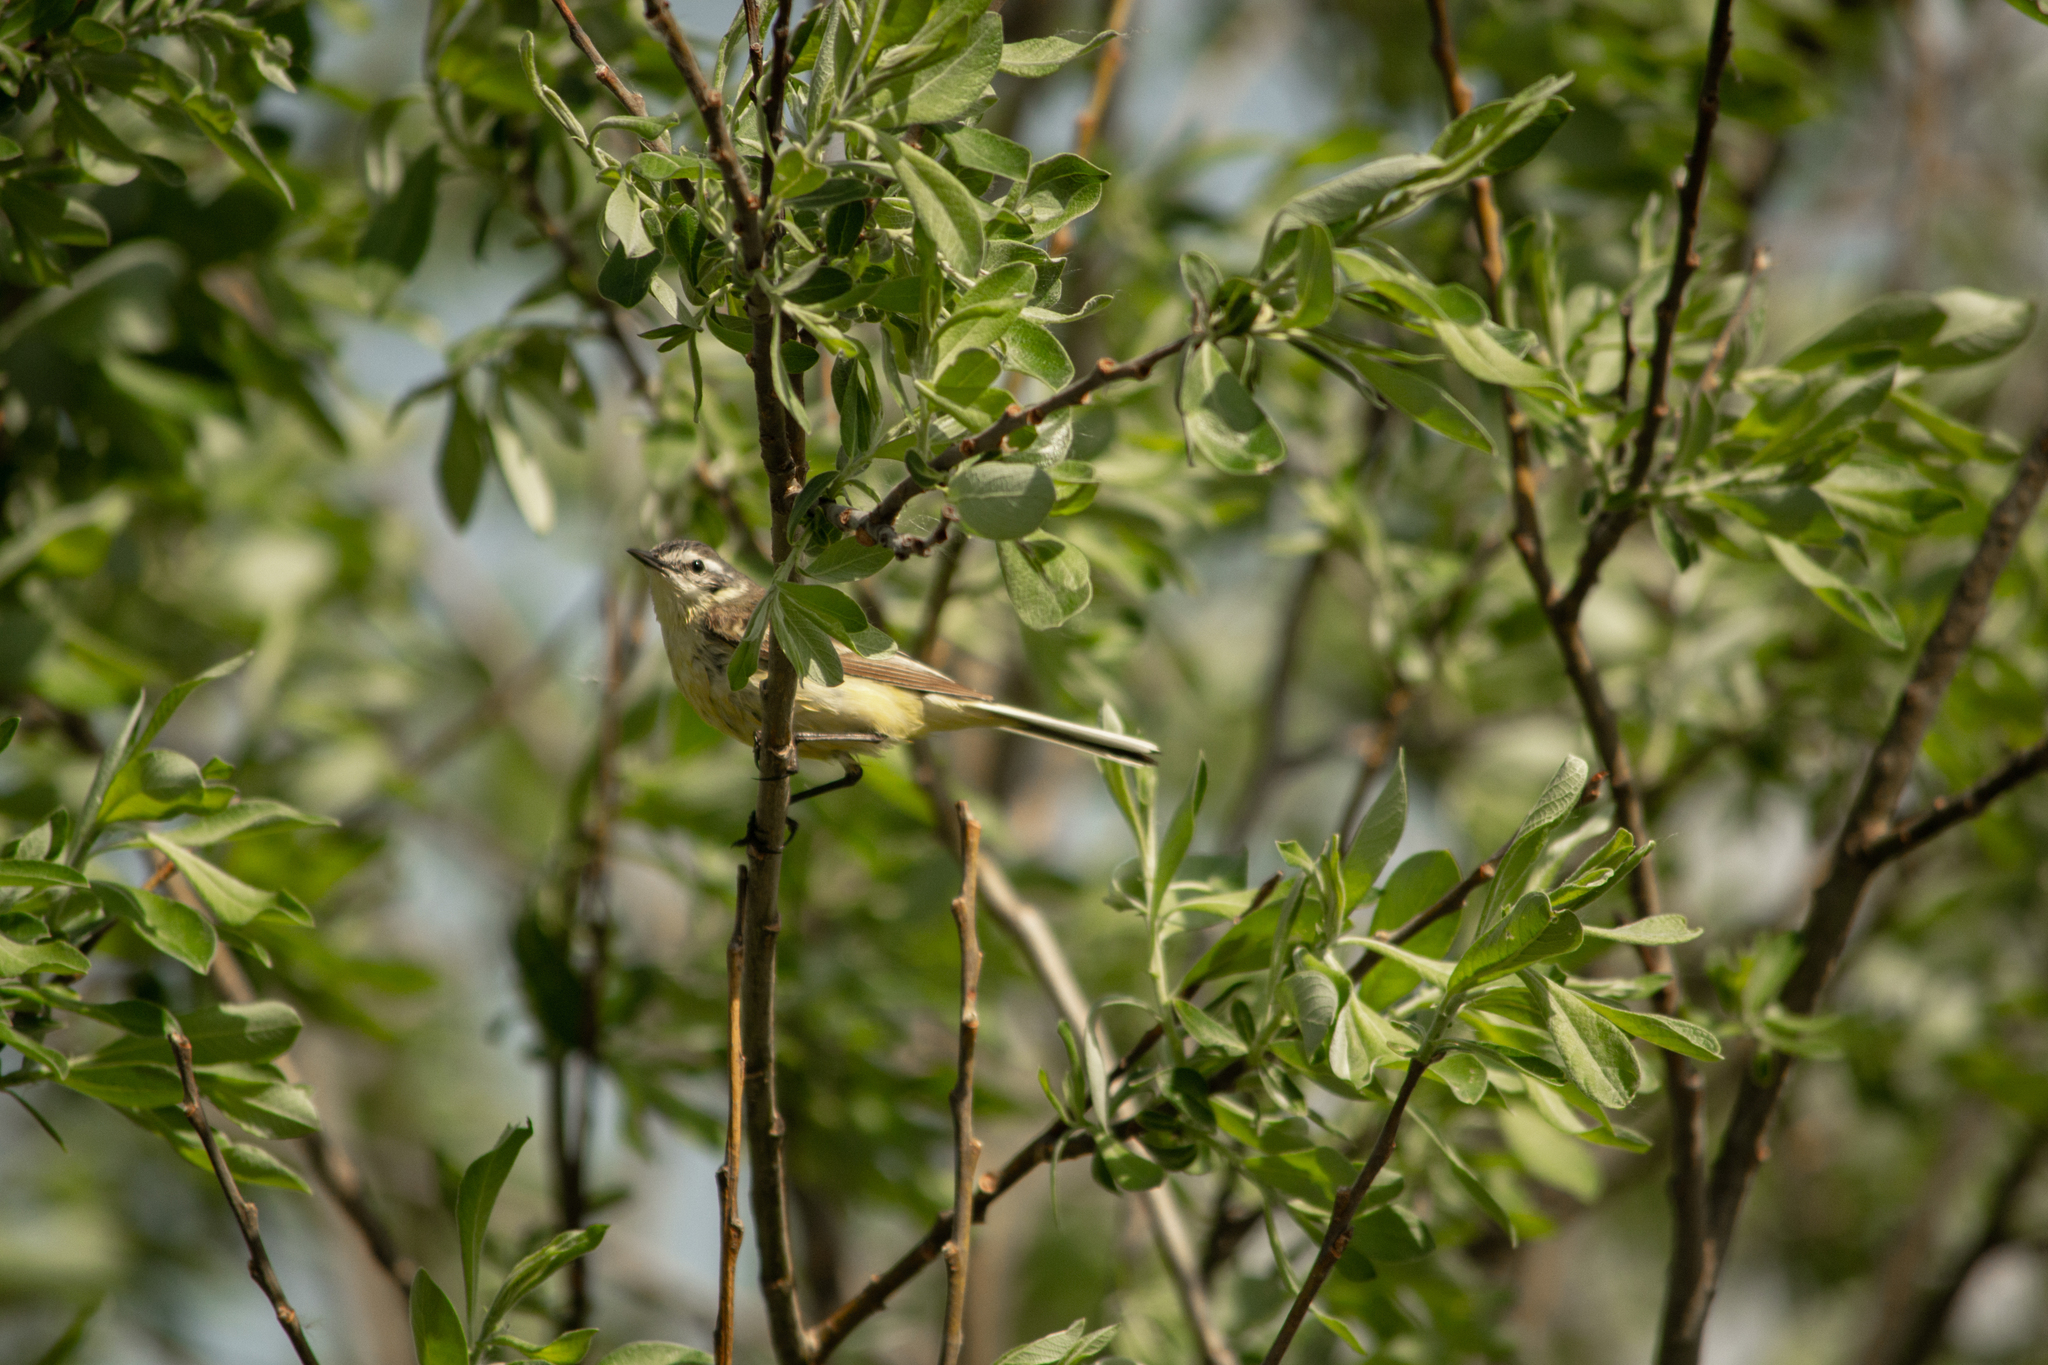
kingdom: Animalia
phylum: Chordata
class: Aves
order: Passeriformes
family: Motacillidae
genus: Motacilla
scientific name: Motacilla flava
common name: Western yellow wagtail
